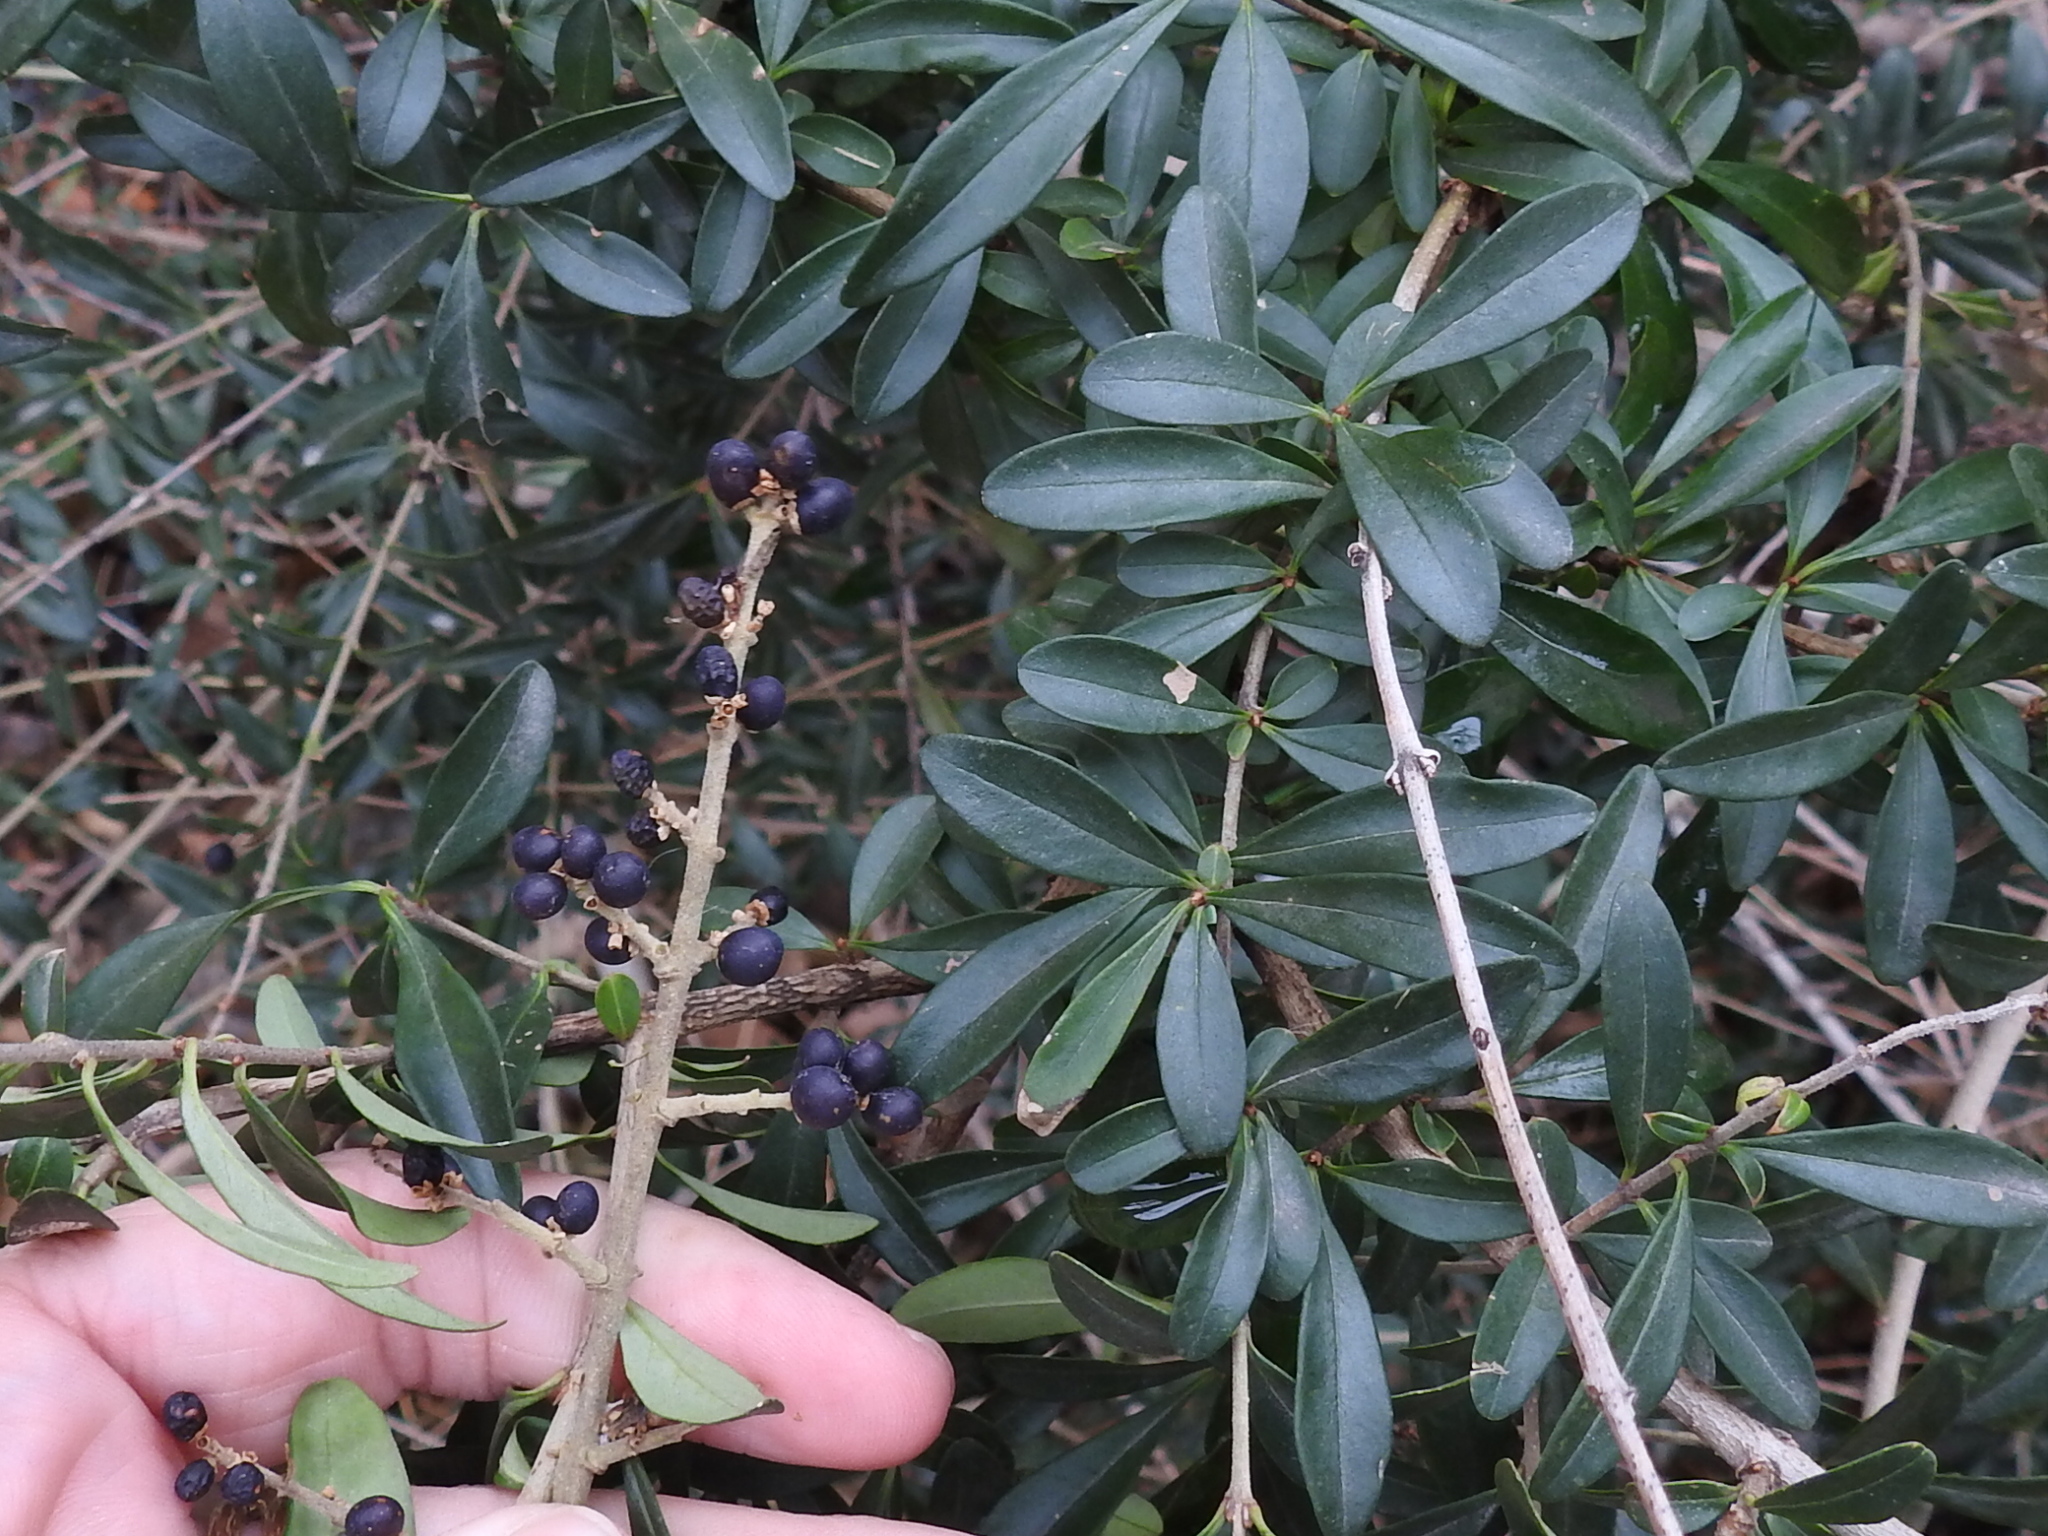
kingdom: Plantae
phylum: Tracheophyta
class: Magnoliopsida
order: Lamiales
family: Oleaceae
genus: Ligustrum
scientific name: Ligustrum quihoui
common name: Waxyleaf privet
